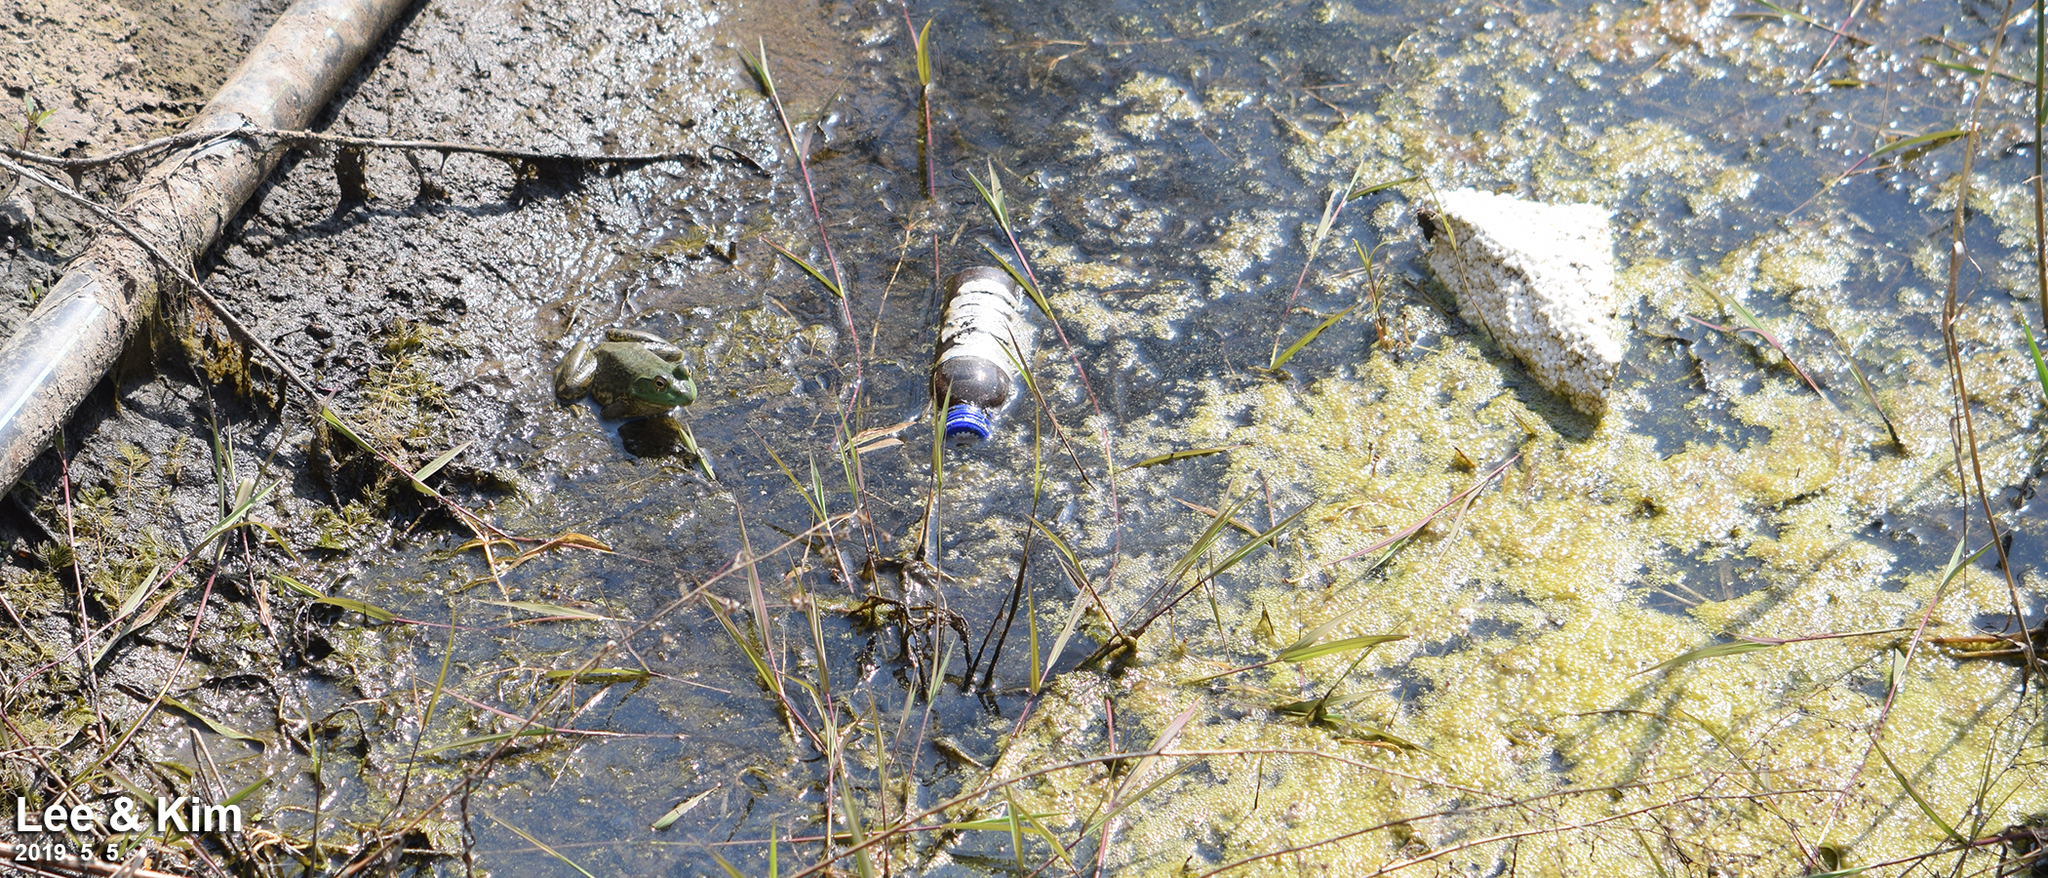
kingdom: Animalia
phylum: Chordata
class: Amphibia
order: Anura
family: Ranidae
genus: Lithobates
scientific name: Lithobates catesbeianus
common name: American bullfrog
